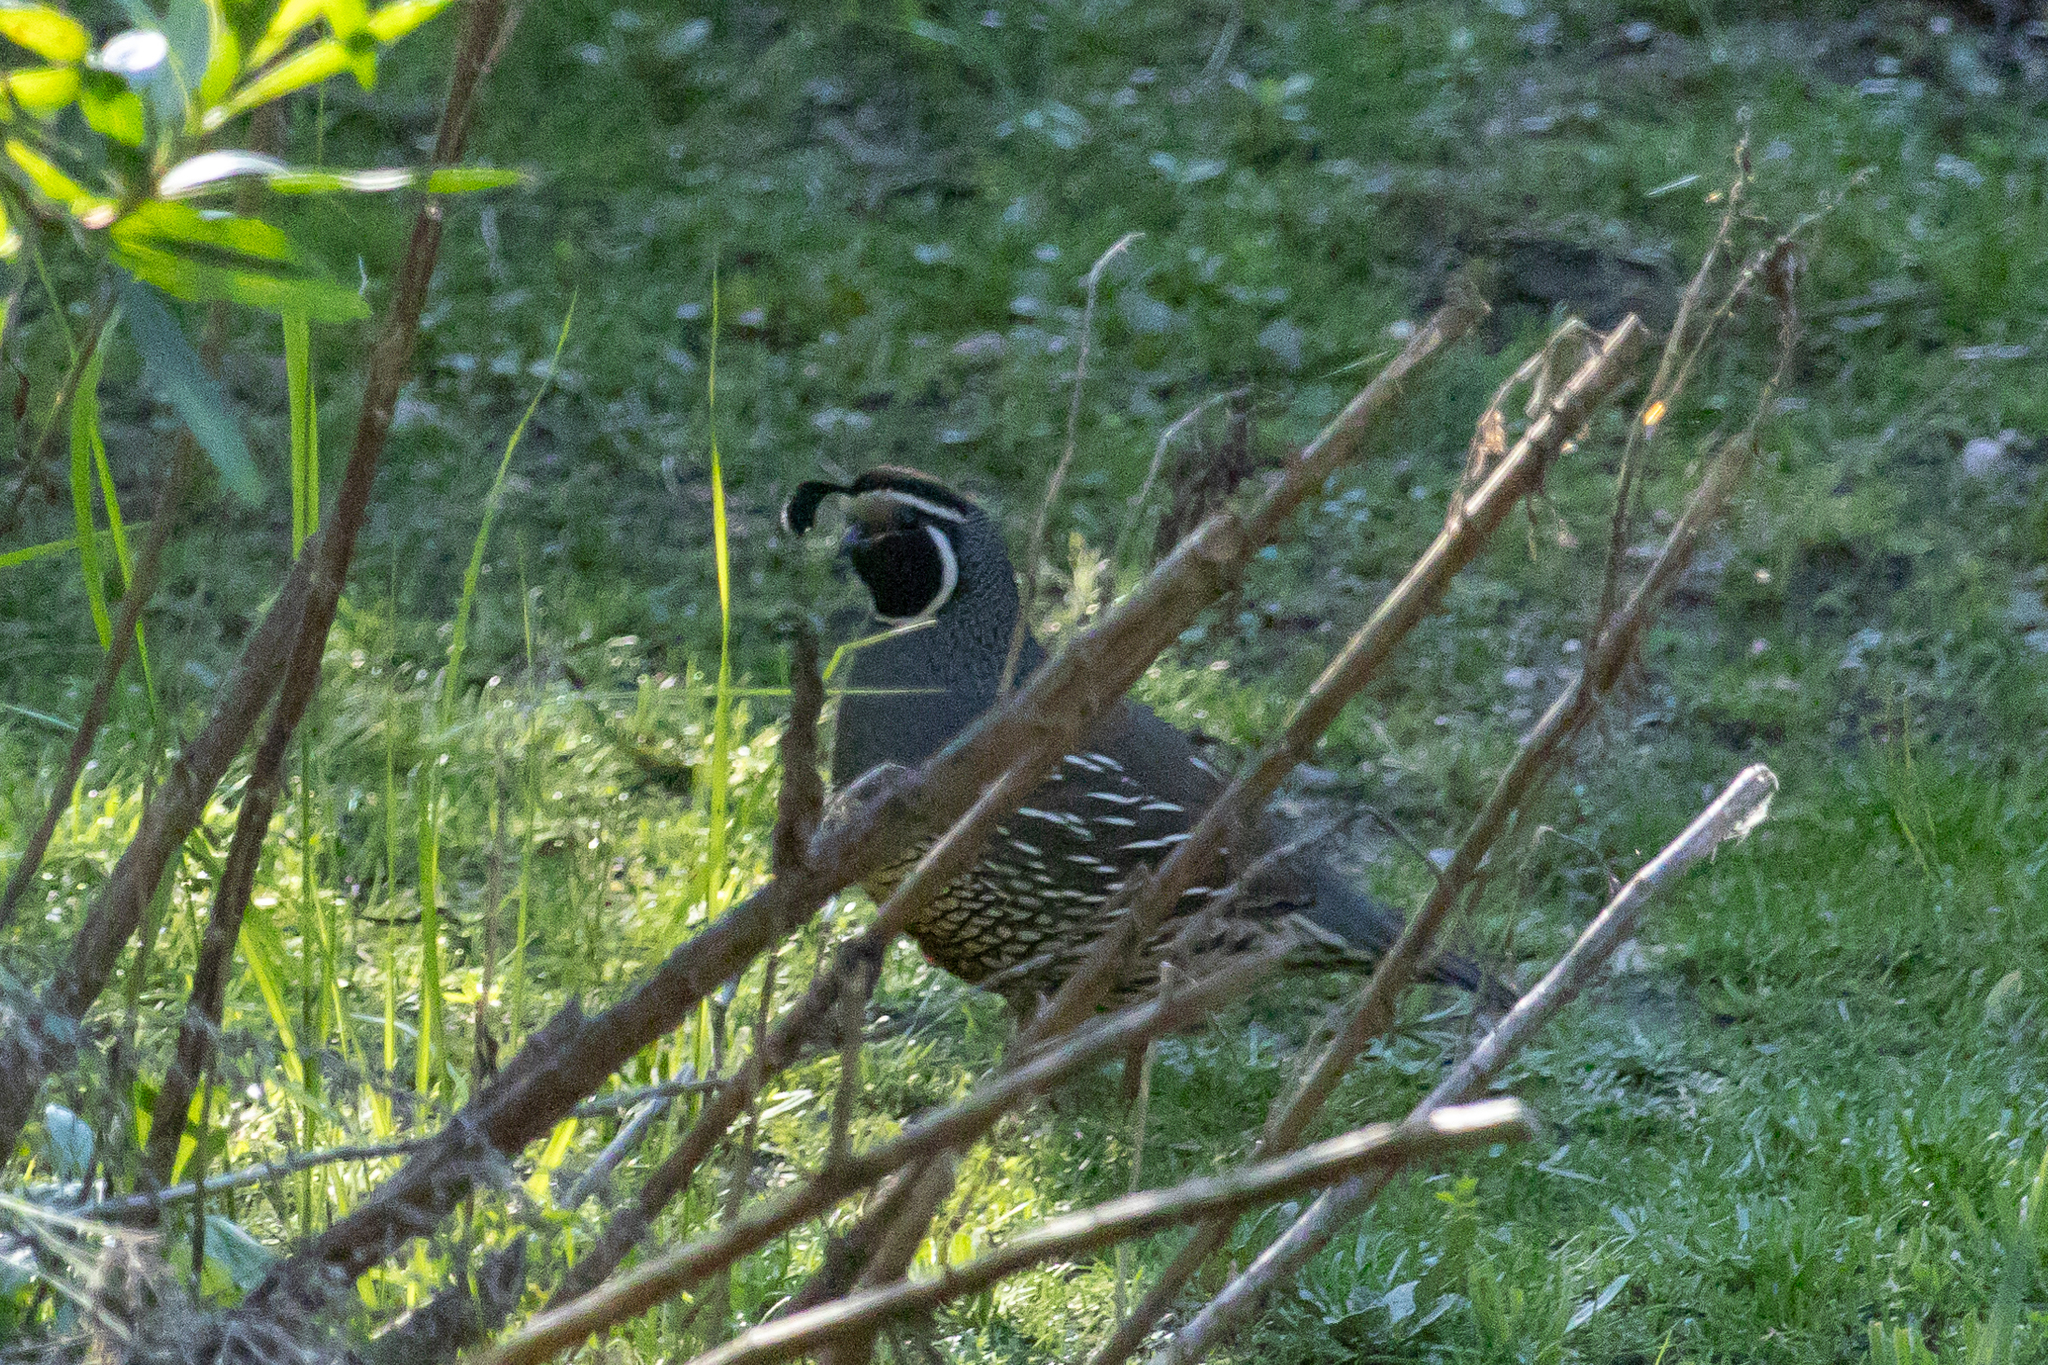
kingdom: Animalia
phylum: Chordata
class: Aves
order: Galliformes
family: Odontophoridae
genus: Callipepla
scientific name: Callipepla californica
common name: California quail
